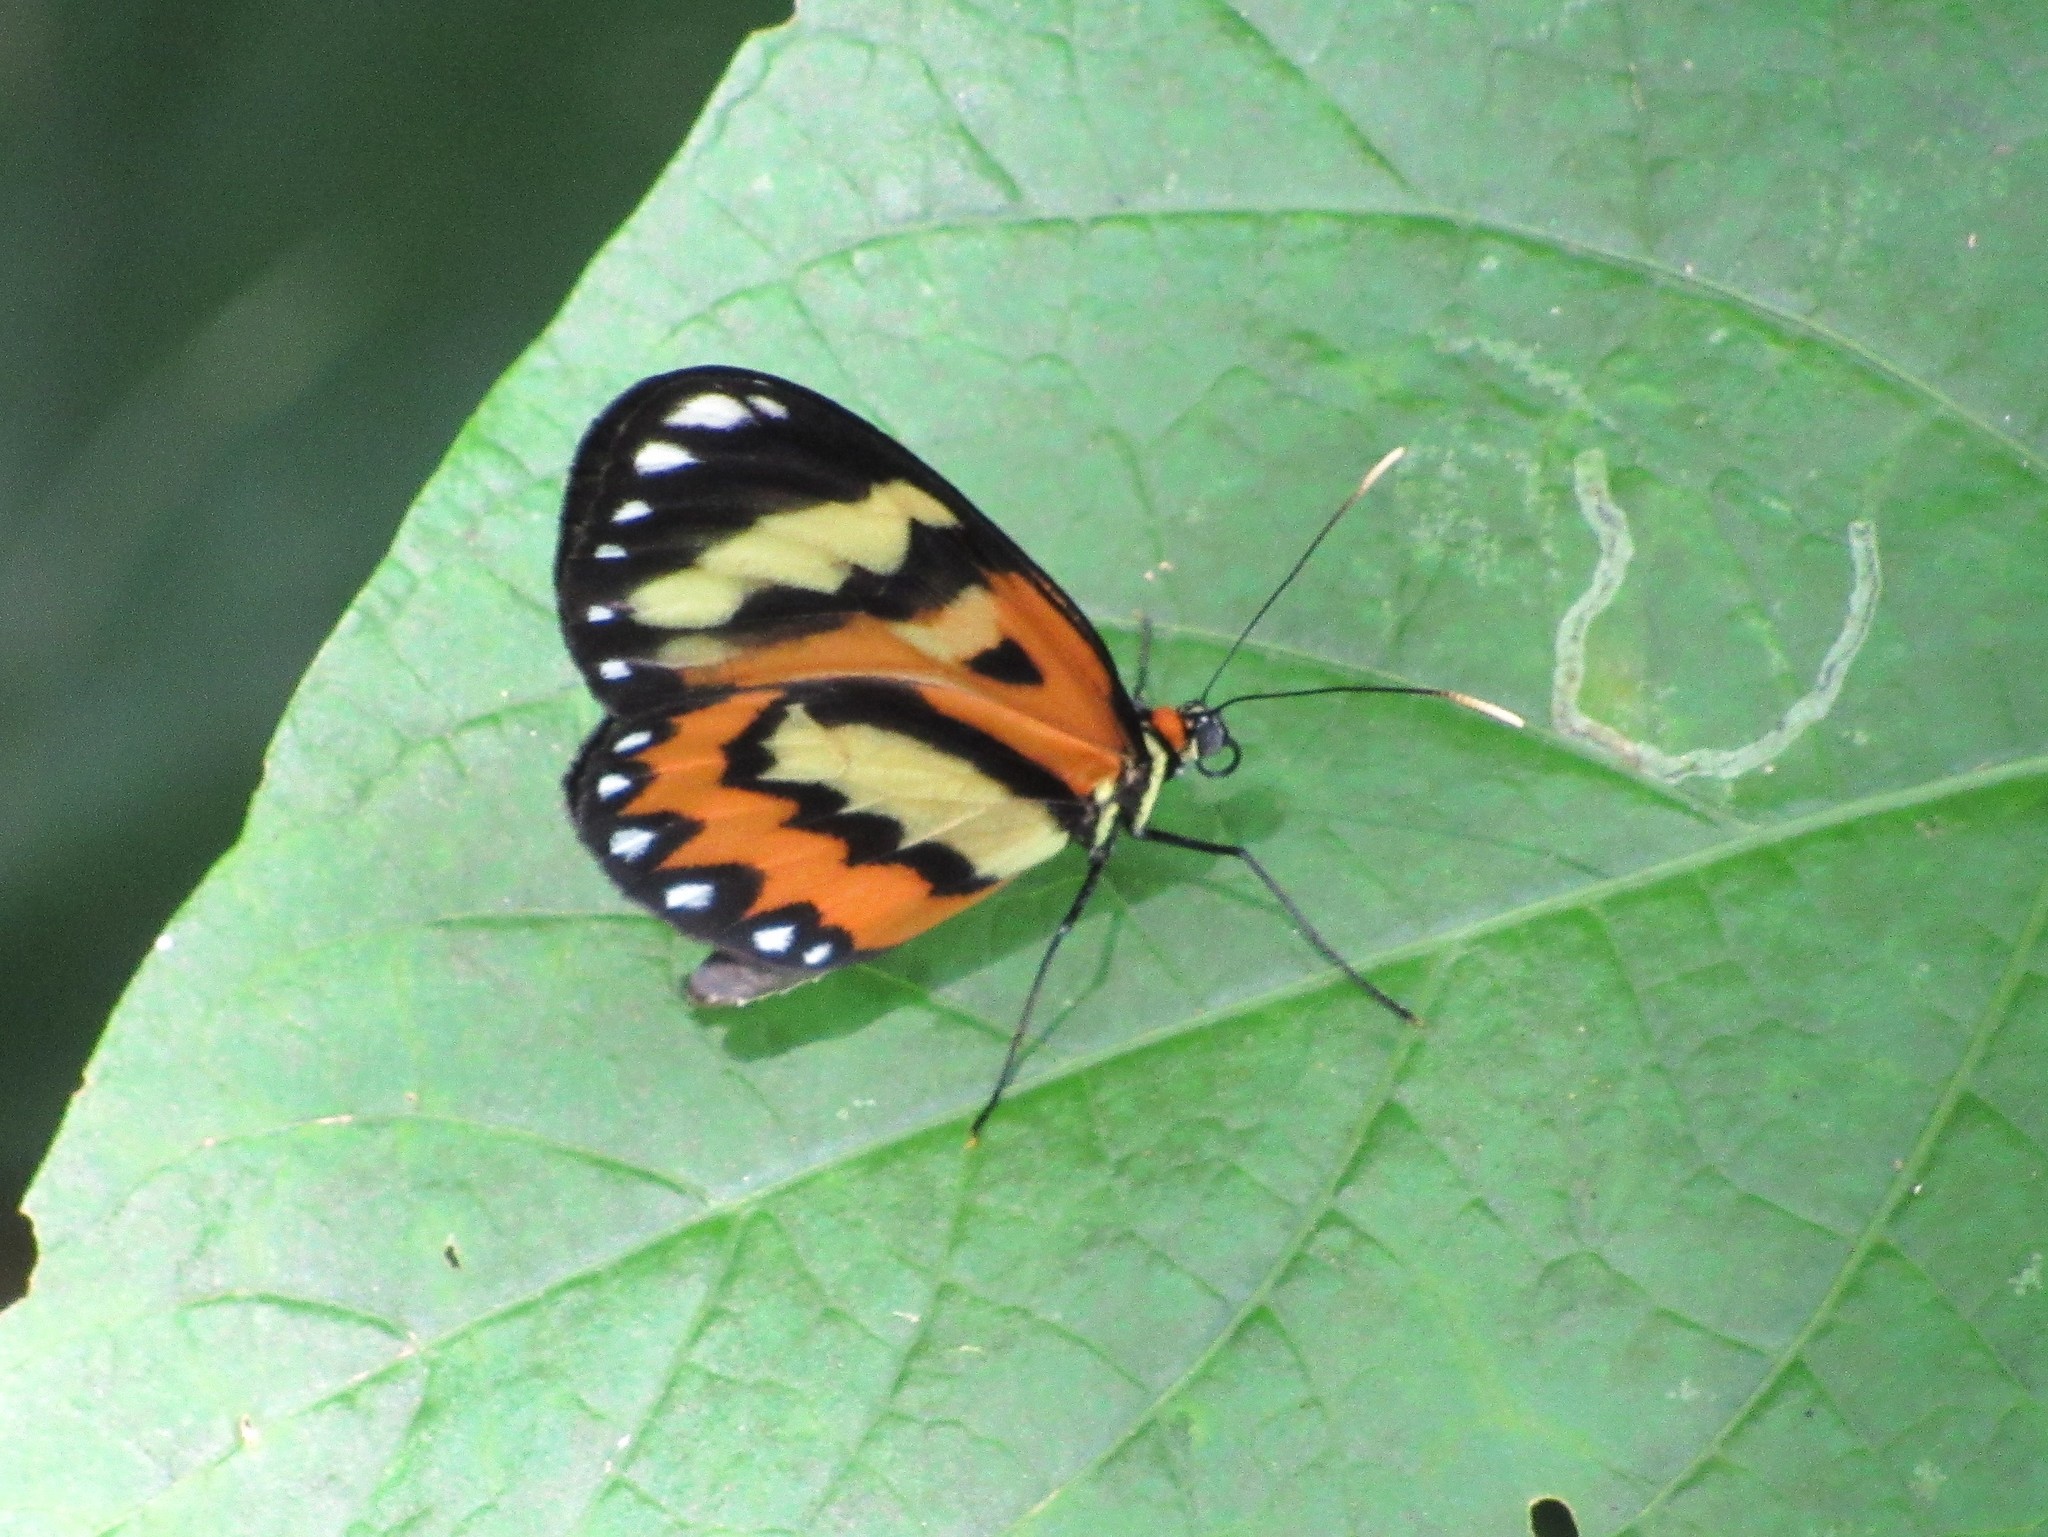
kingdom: Animalia
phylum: Arthropoda
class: Insecta
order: Lepidoptera
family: Nymphalidae
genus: Placidina
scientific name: Placidina euryanassa
